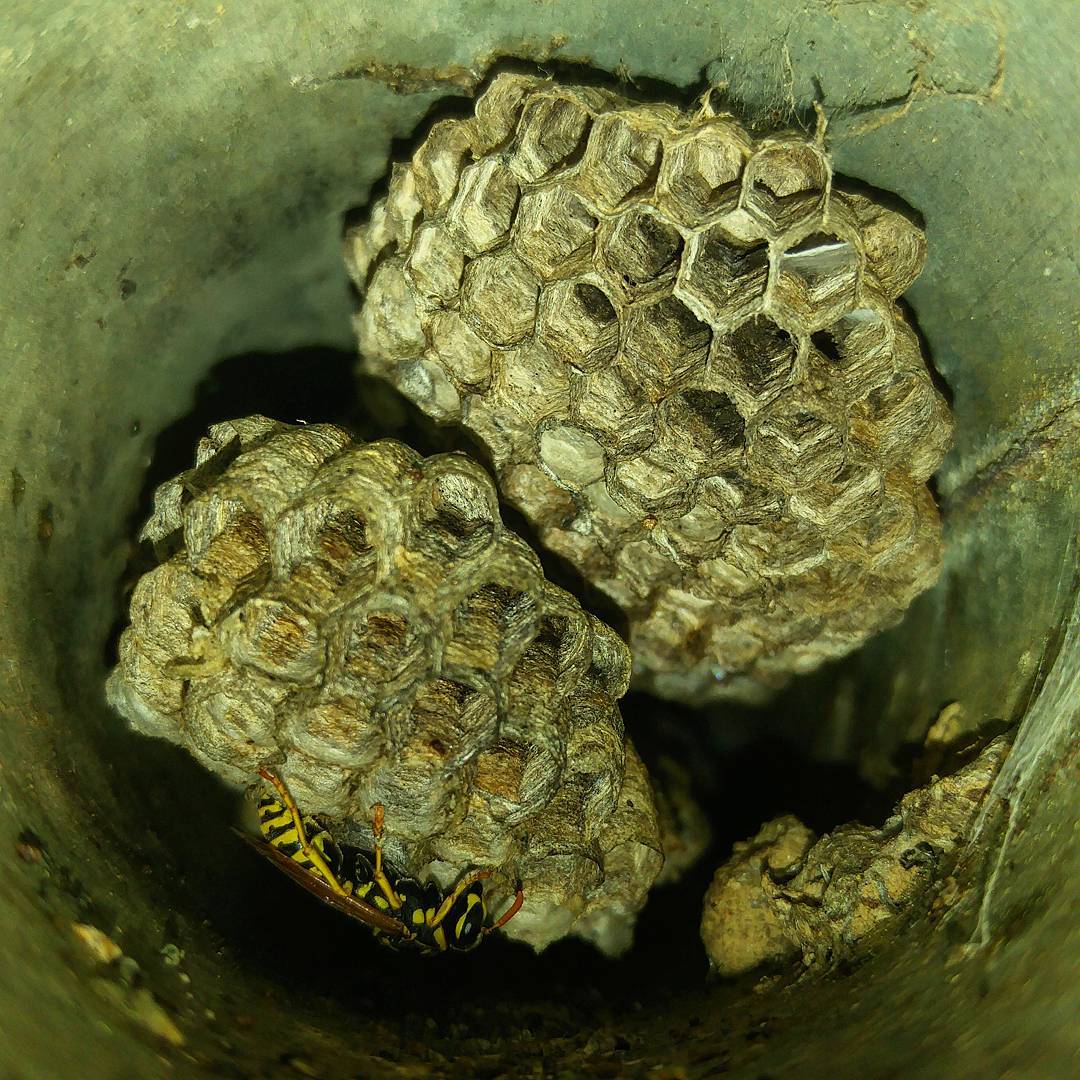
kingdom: Animalia
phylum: Arthropoda
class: Insecta
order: Hymenoptera
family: Eumenidae
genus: Polistes
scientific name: Polistes dominula
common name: Paper wasp
